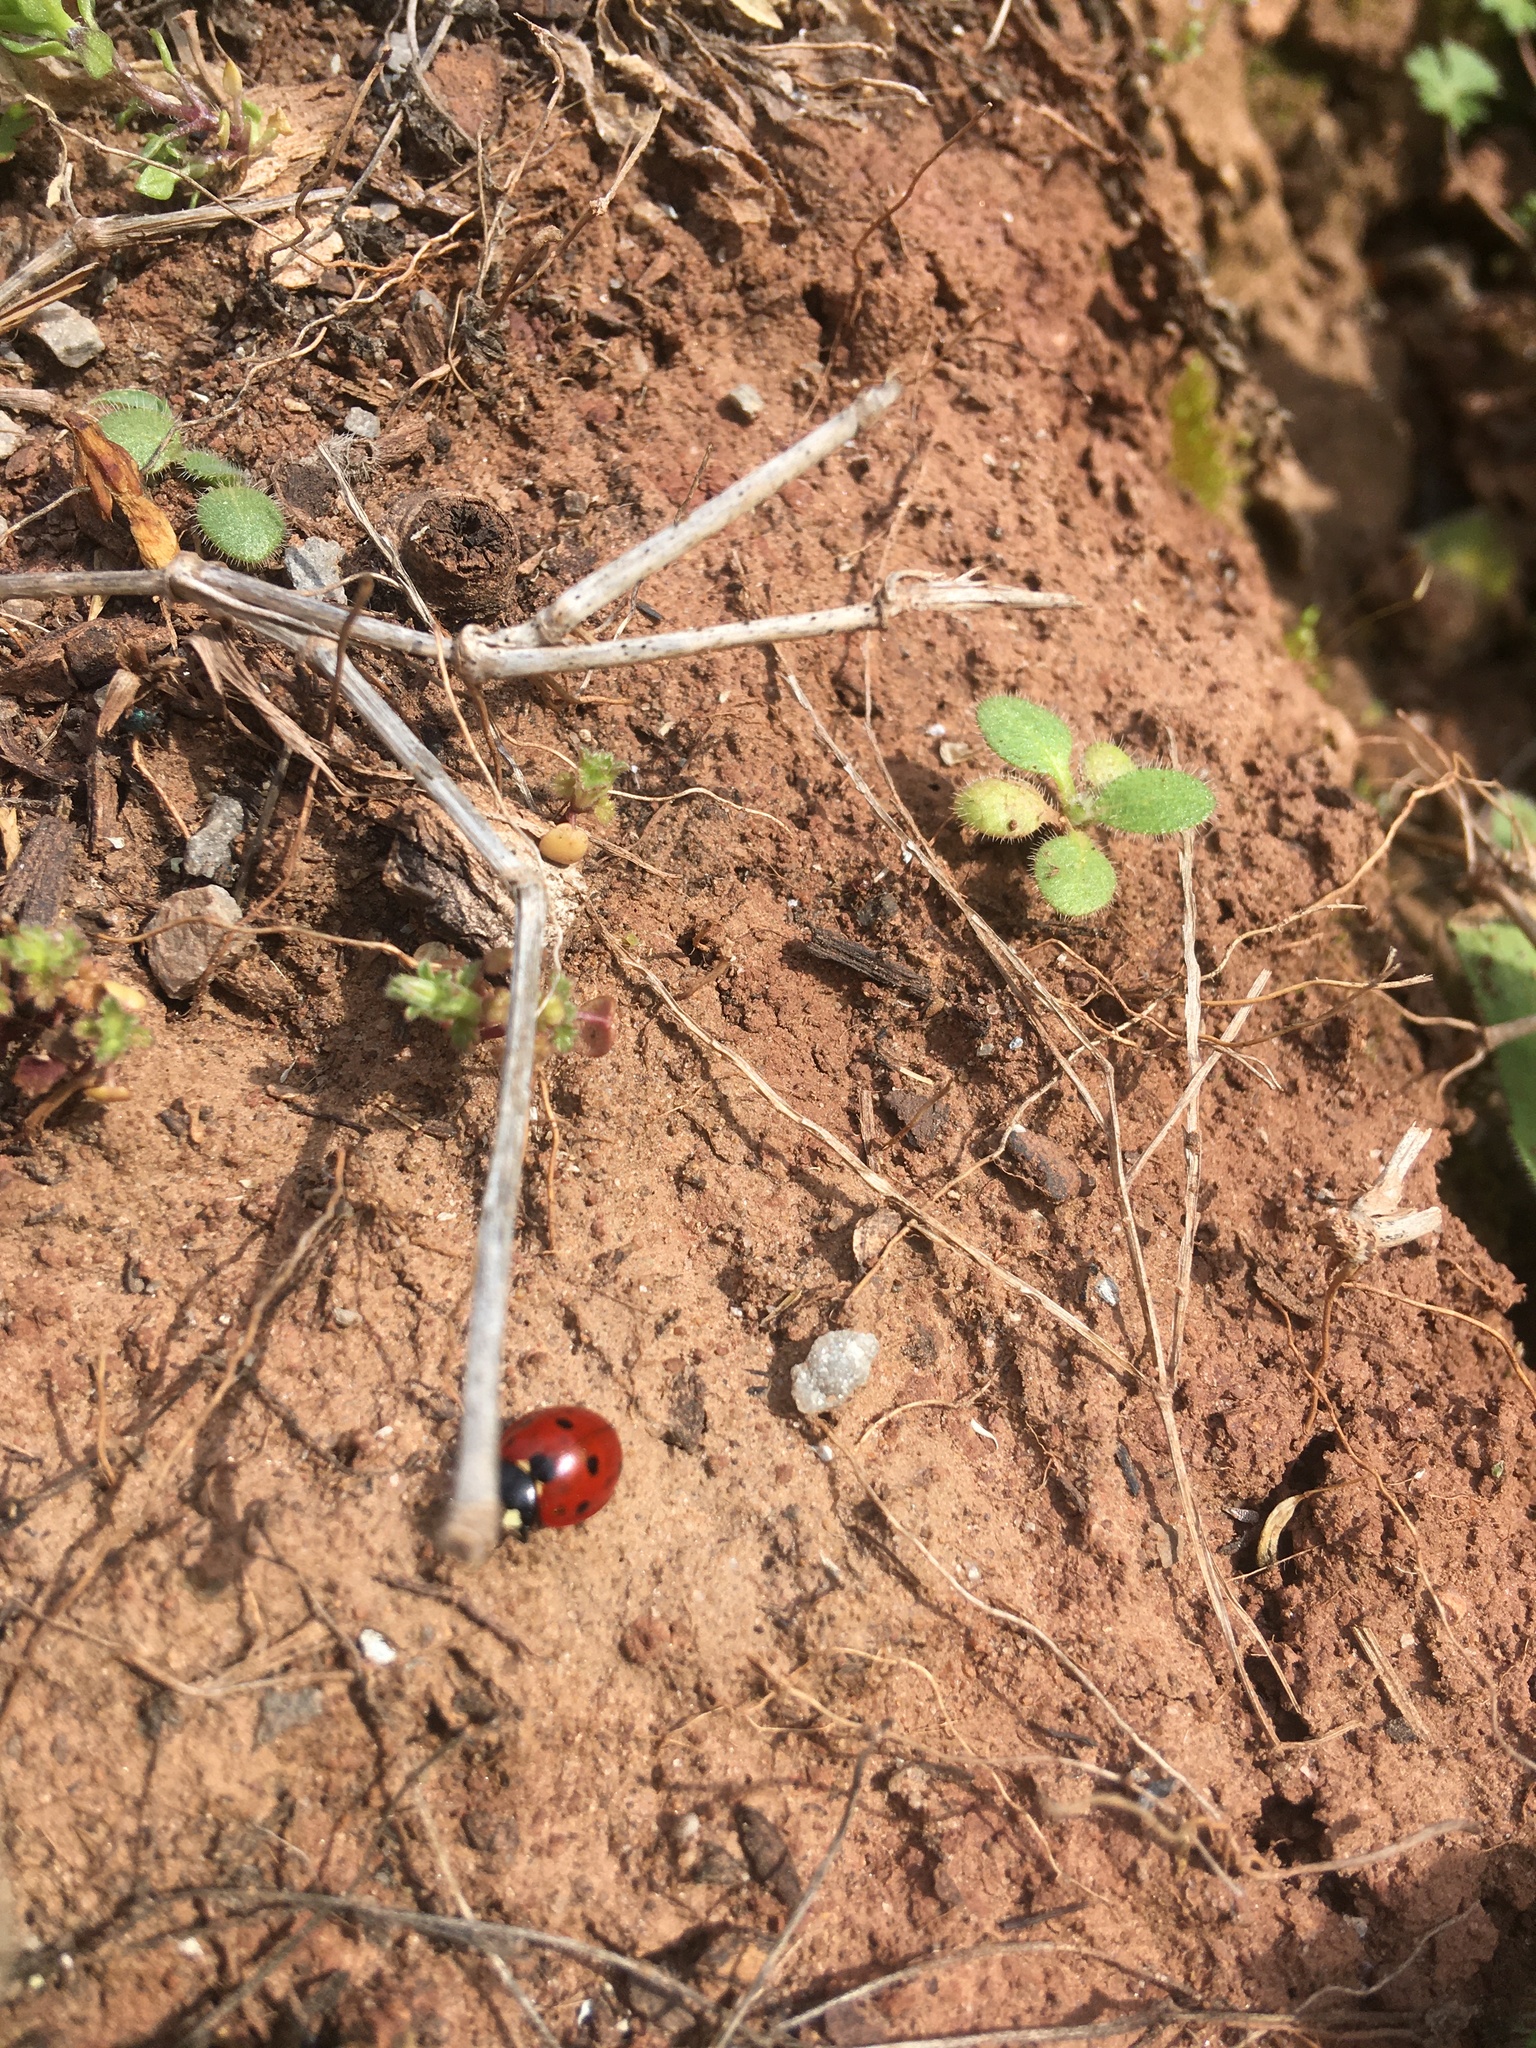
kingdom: Animalia
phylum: Arthropoda
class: Insecta
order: Coleoptera
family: Coccinellidae
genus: Coccinella
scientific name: Coccinella septempunctata
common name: Sevenspotted lady beetle
